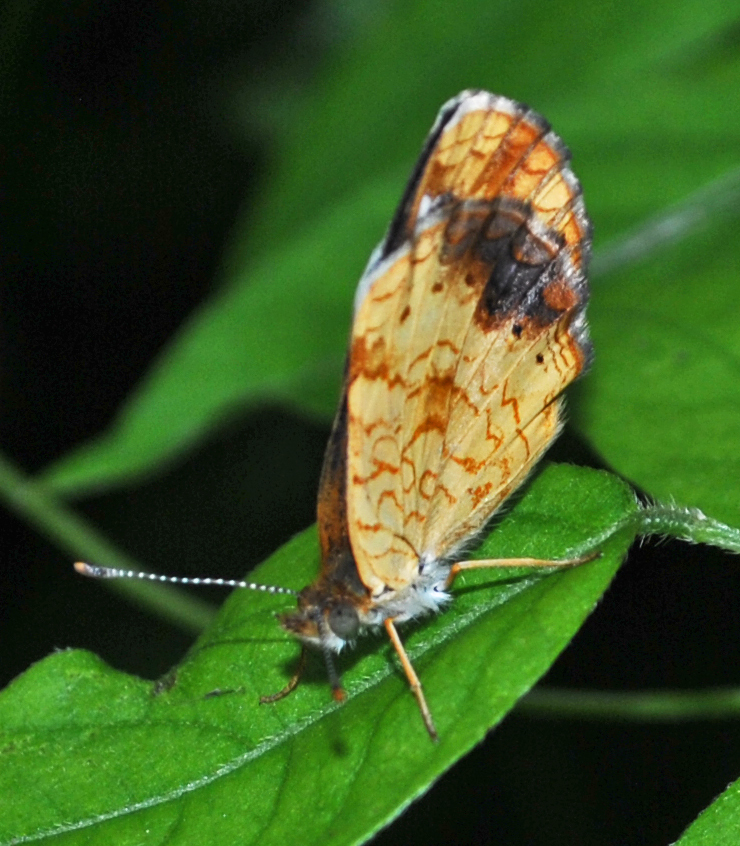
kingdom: Animalia
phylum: Arthropoda
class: Insecta
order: Lepidoptera
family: Nymphalidae
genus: Phyciodes
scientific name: Phyciodes tharos
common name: Pearl crescent
